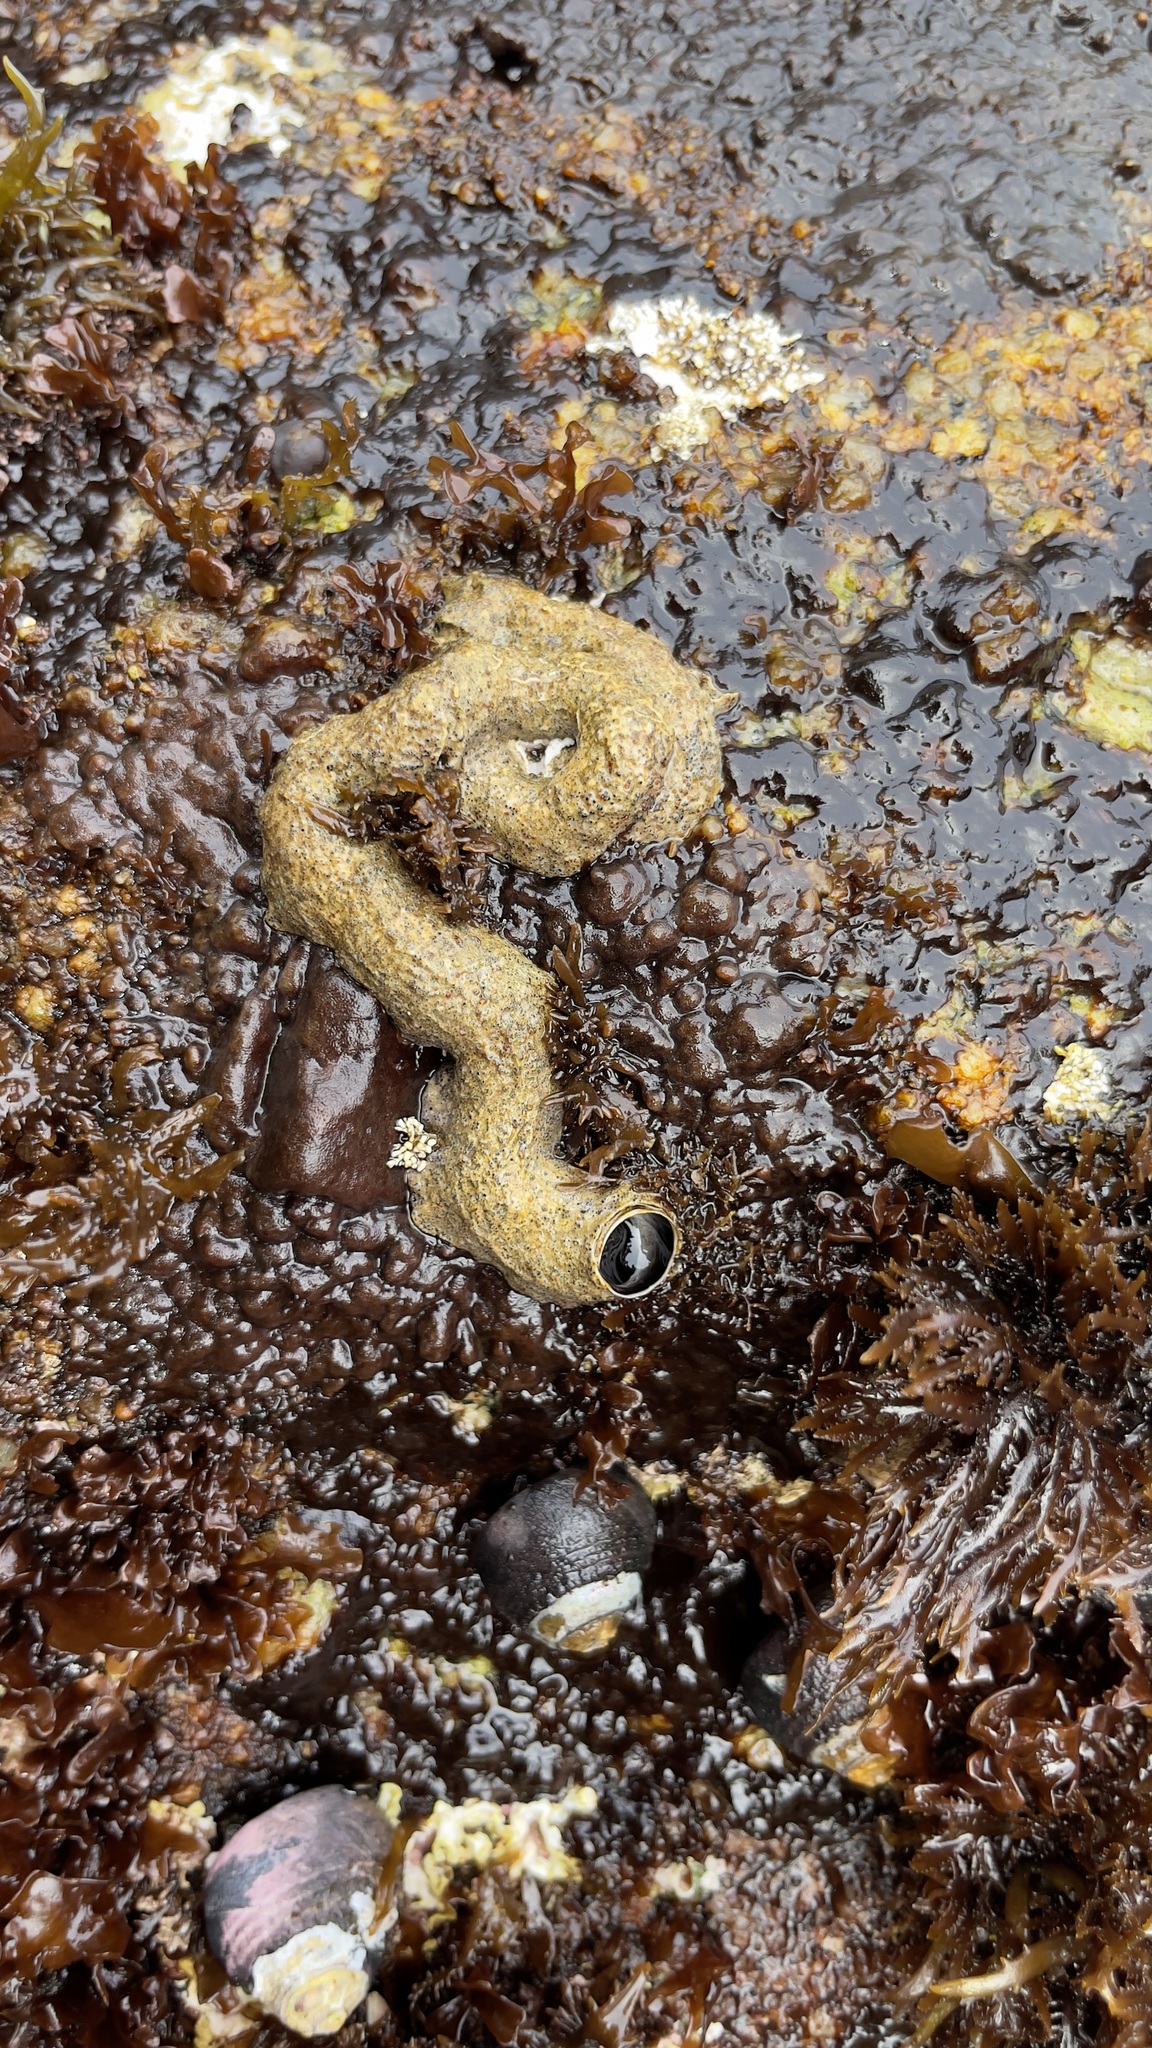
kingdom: Animalia
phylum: Mollusca
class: Gastropoda
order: Littorinimorpha
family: Vermetidae
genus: Thylacodes
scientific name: Thylacodes squamigerus
